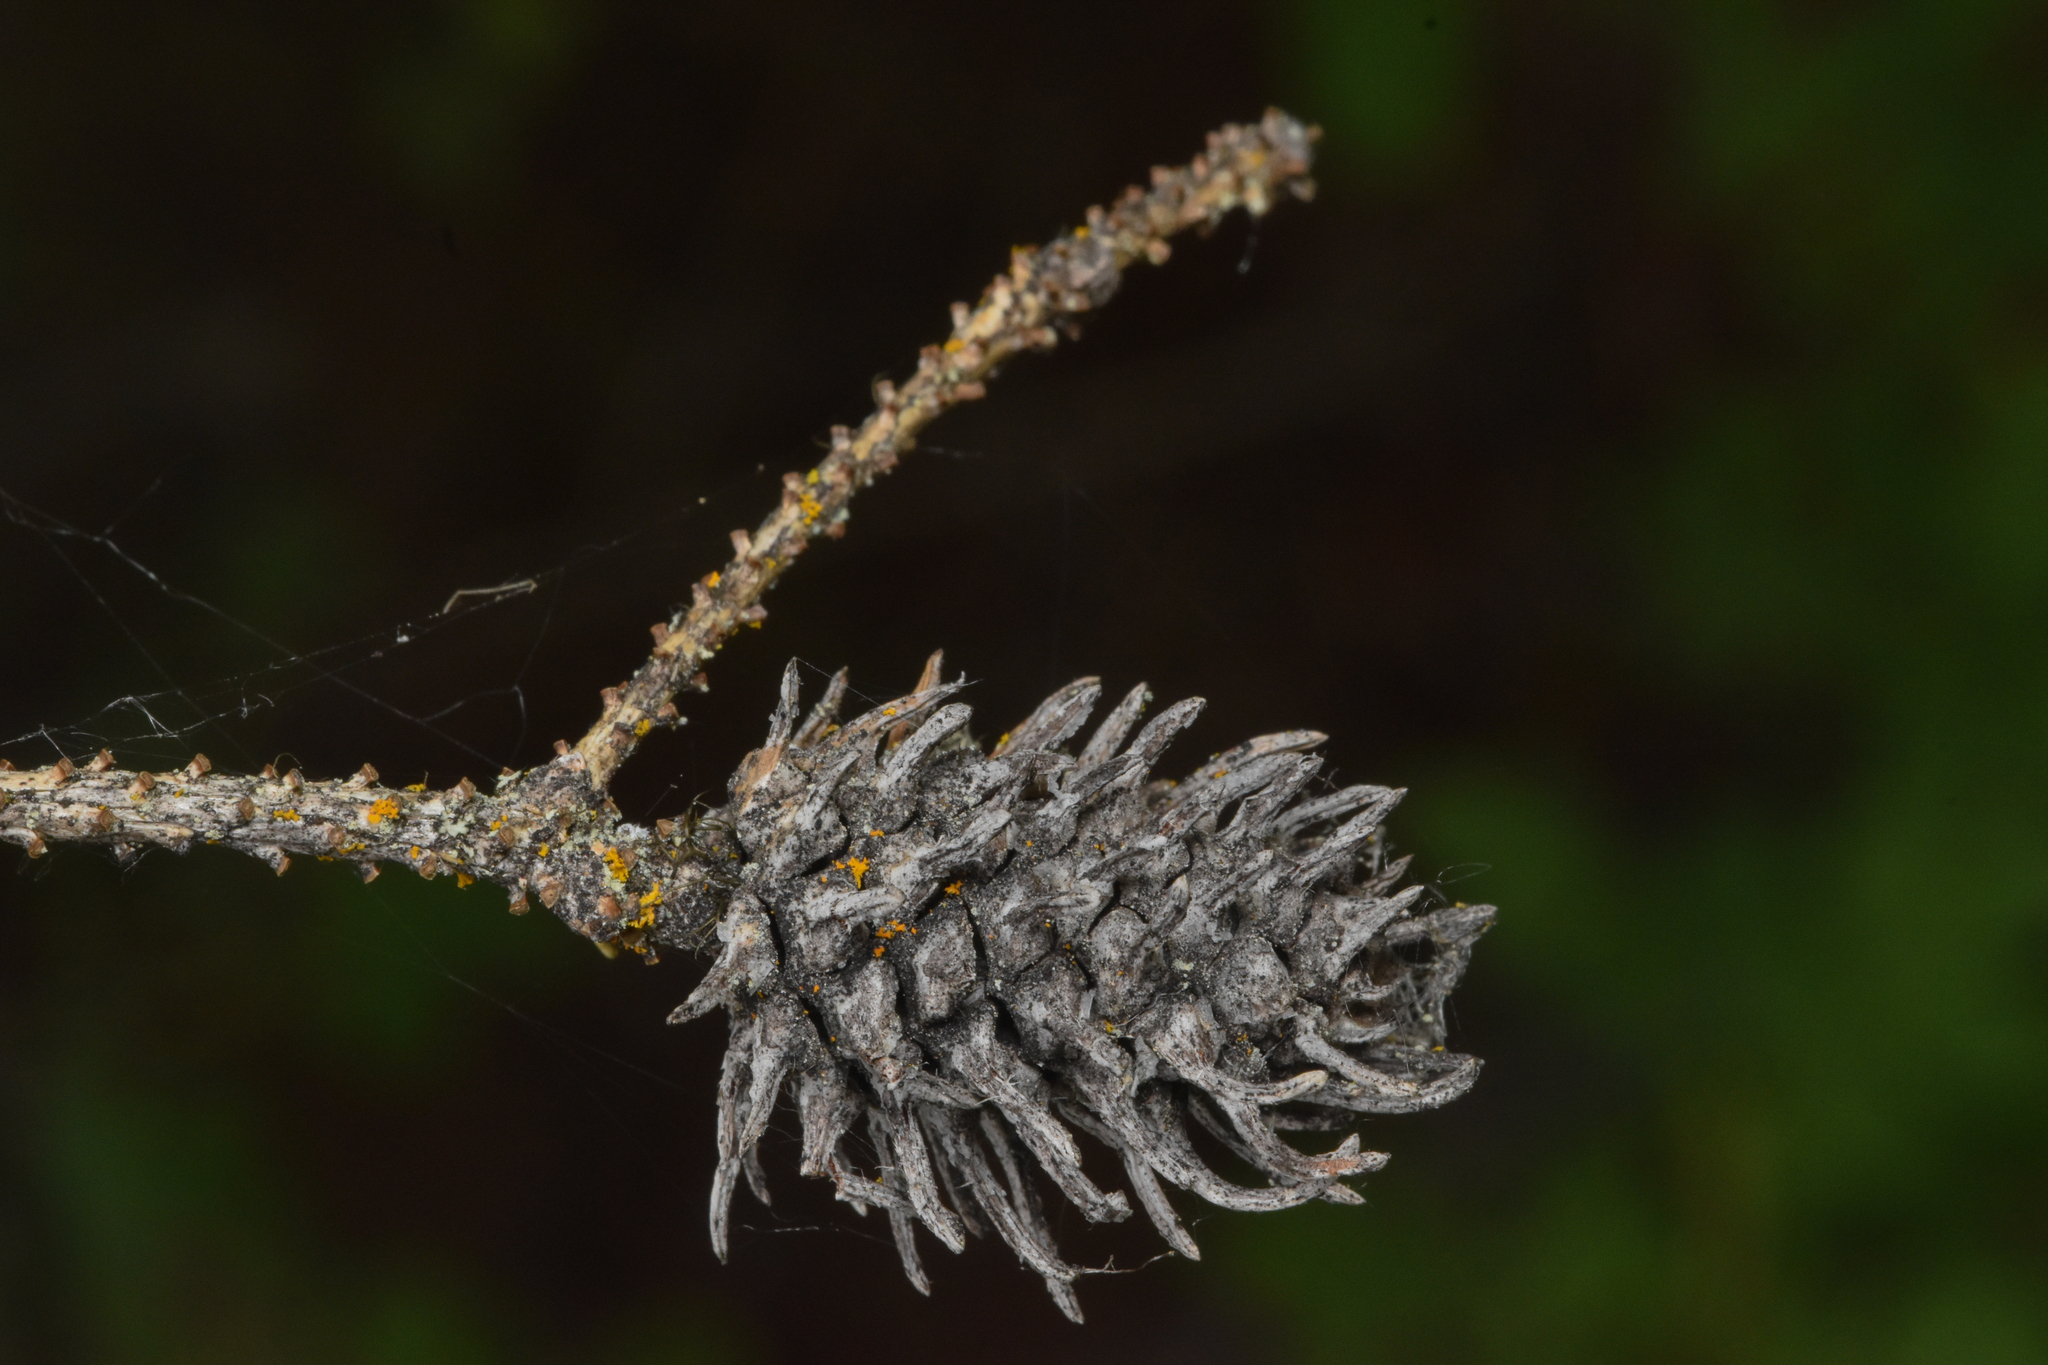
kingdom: Animalia
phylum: Arthropoda
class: Insecta
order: Hemiptera
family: Adelgidae
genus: Adelges
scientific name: Adelges cooleyi
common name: Cooley spruce gall adelgid
